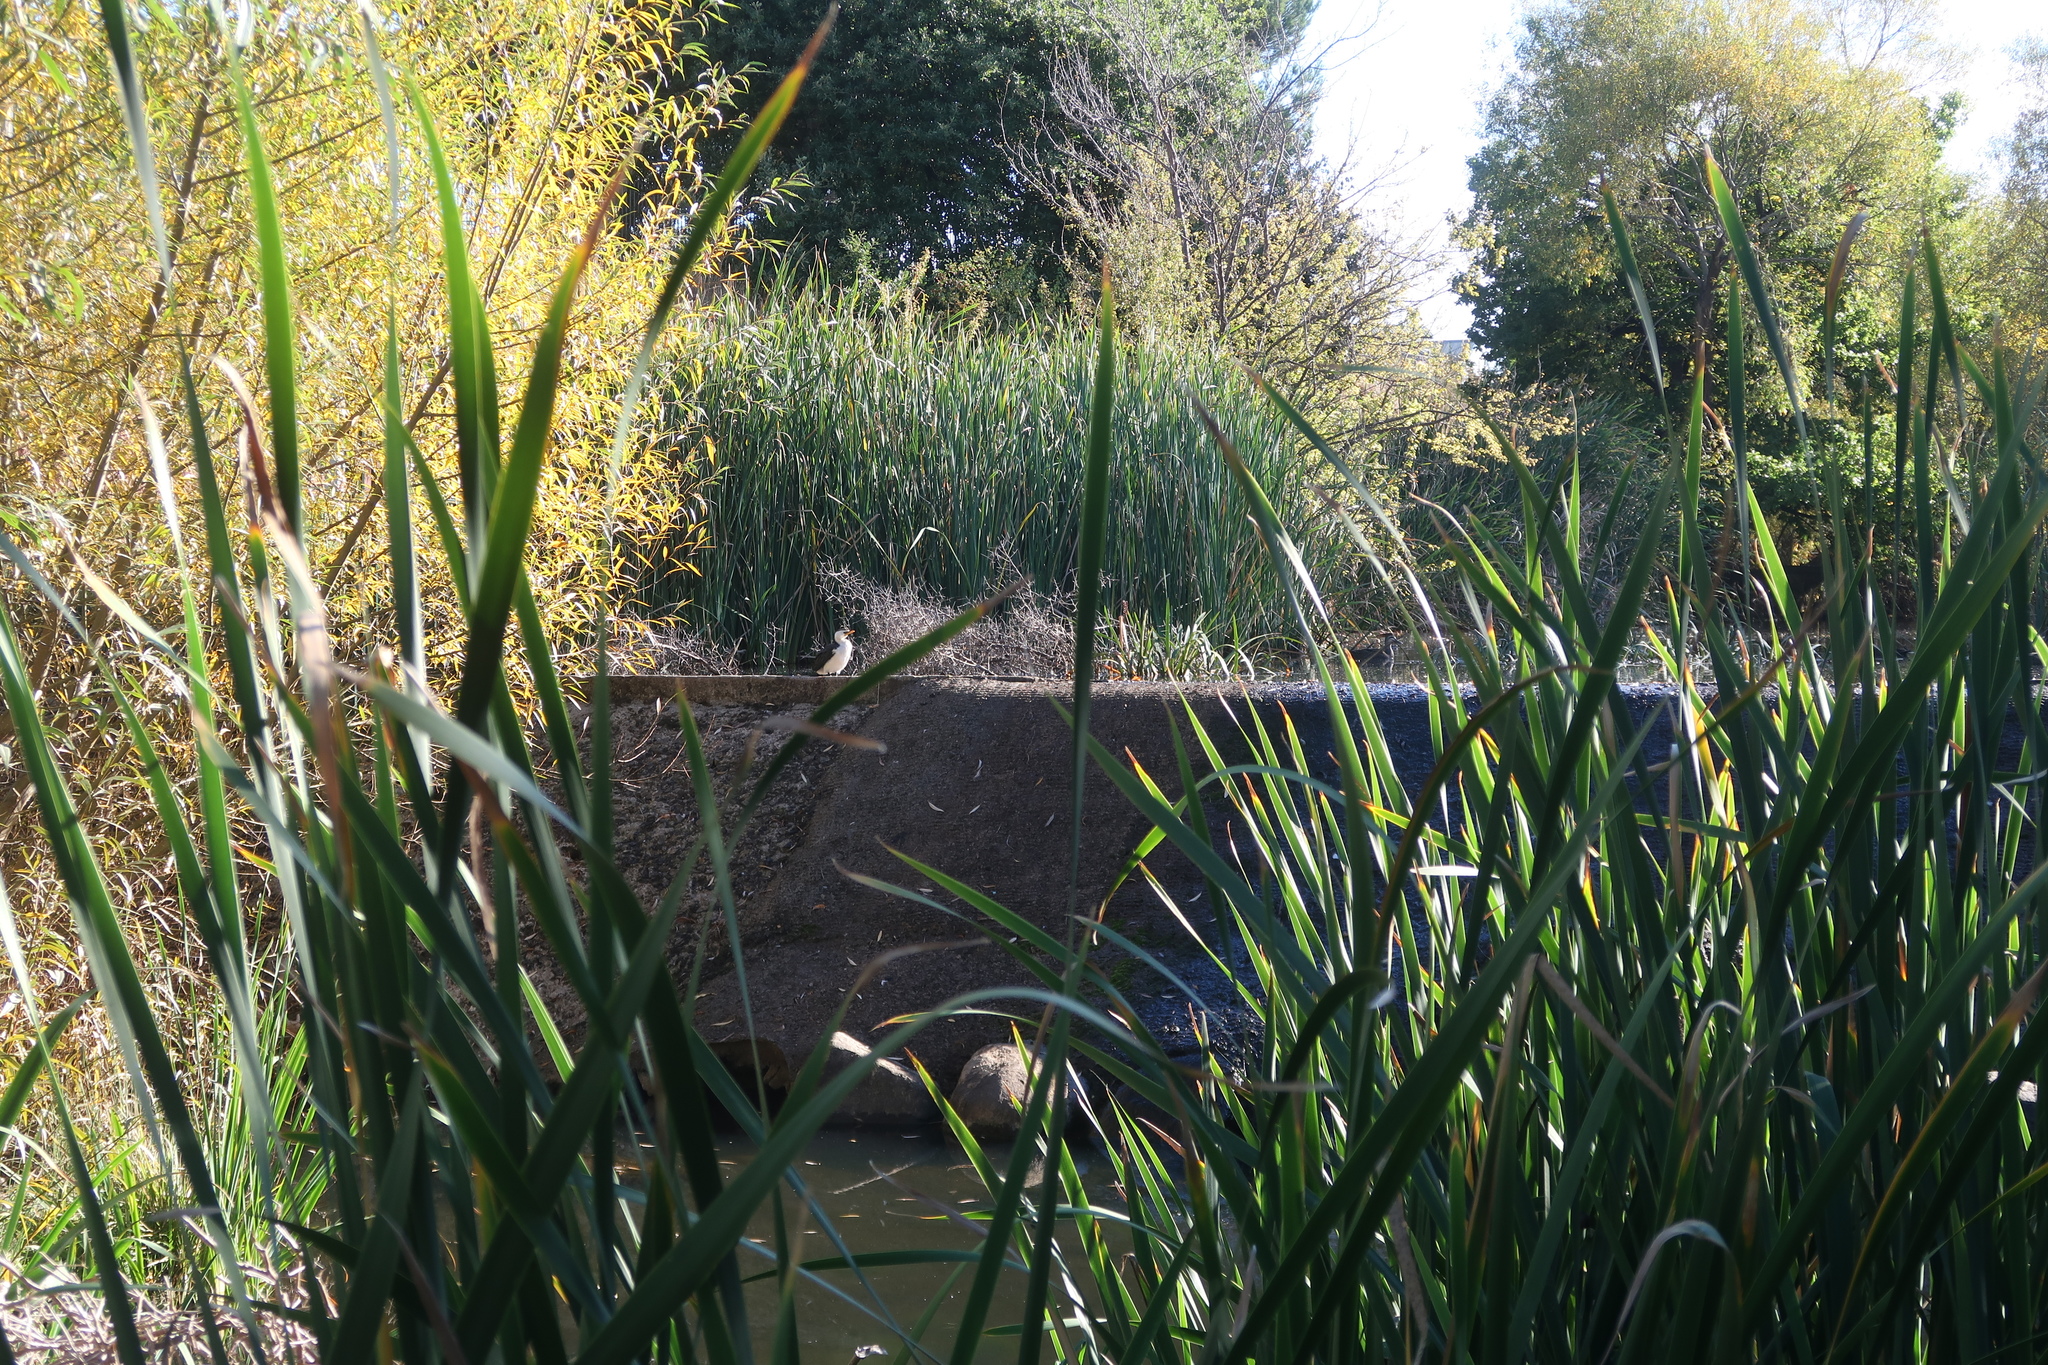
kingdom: Animalia
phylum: Chordata
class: Aves
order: Suliformes
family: Phalacrocoracidae
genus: Microcarbo
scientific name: Microcarbo melanoleucos
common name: Little pied cormorant
